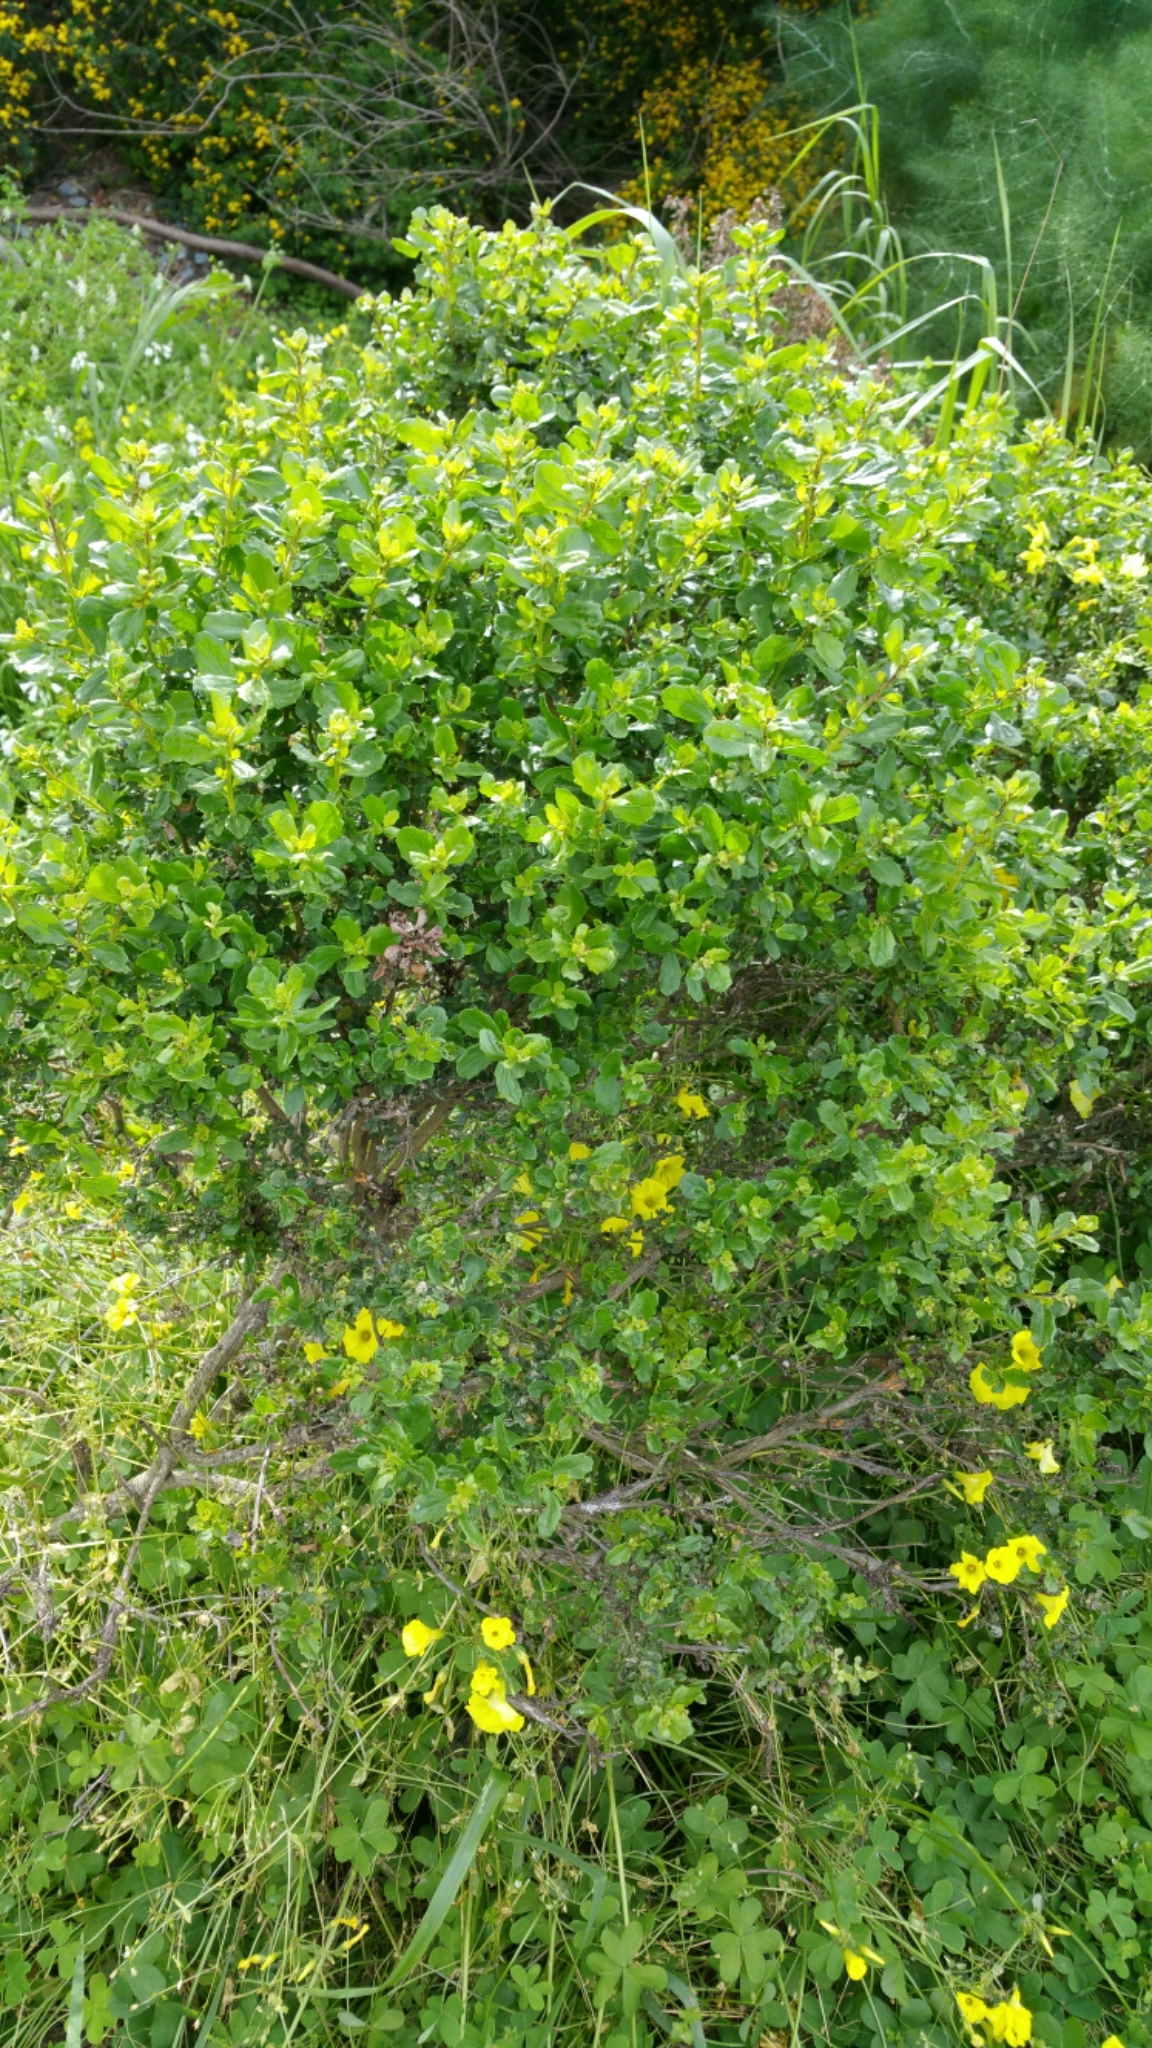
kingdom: Plantae
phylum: Tracheophyta
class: Magnoliopsida
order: Asterales
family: Asteraceae
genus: Baccharis
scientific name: Baccharis pilularis
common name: Coyotebrush
